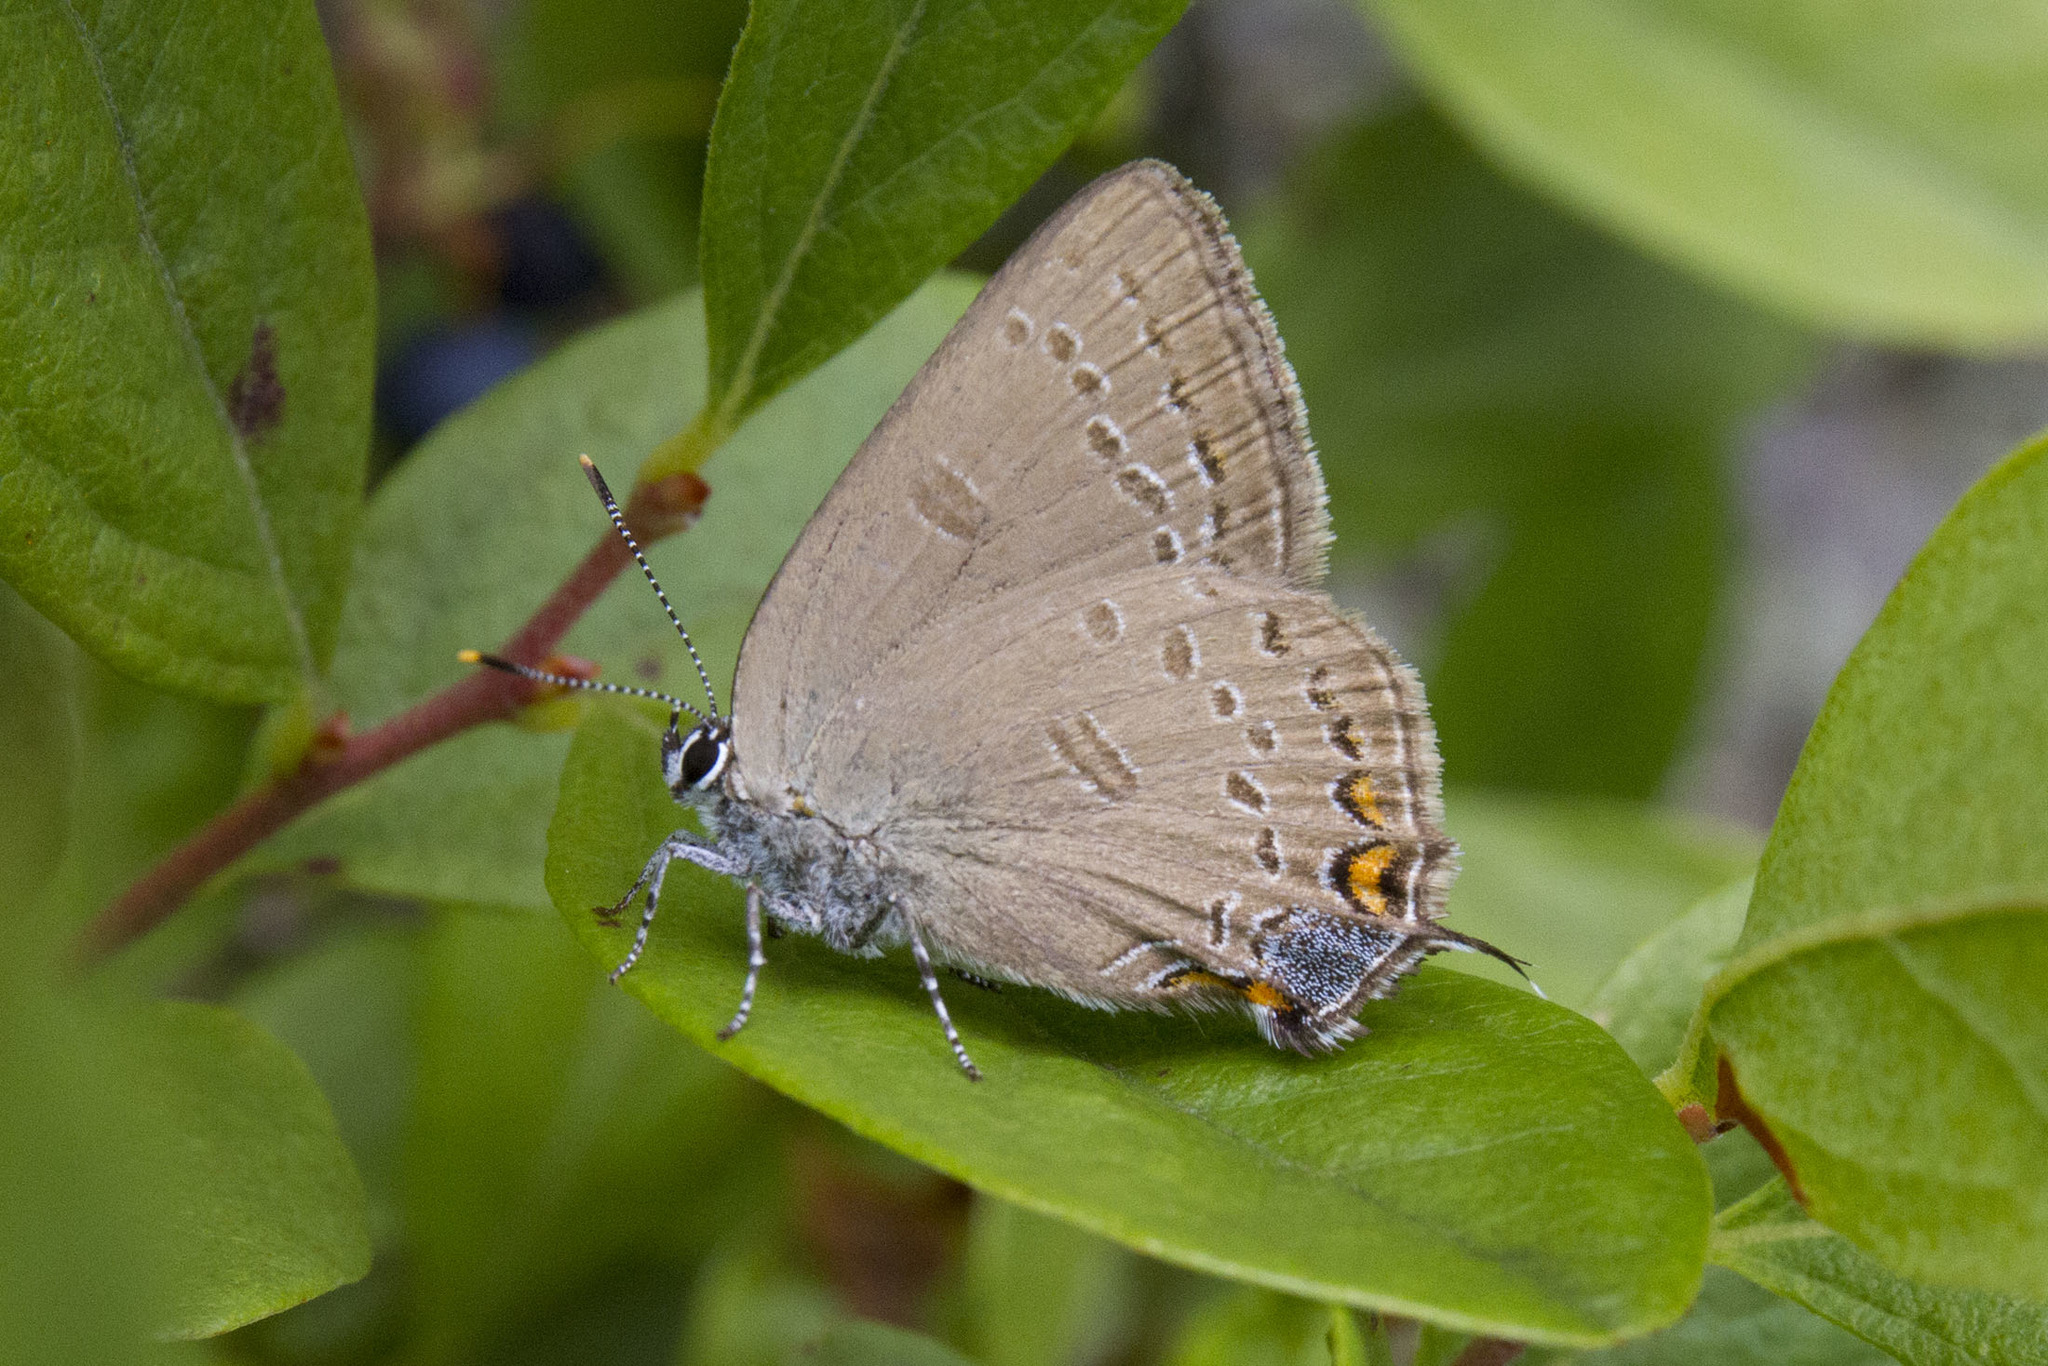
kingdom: Animalia
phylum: Arthropoda
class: Insecta
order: Lepidoptera
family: Lycaenidae
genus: Satyrium
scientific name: Satyrium edwardsii
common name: Edwards' hairstreak
